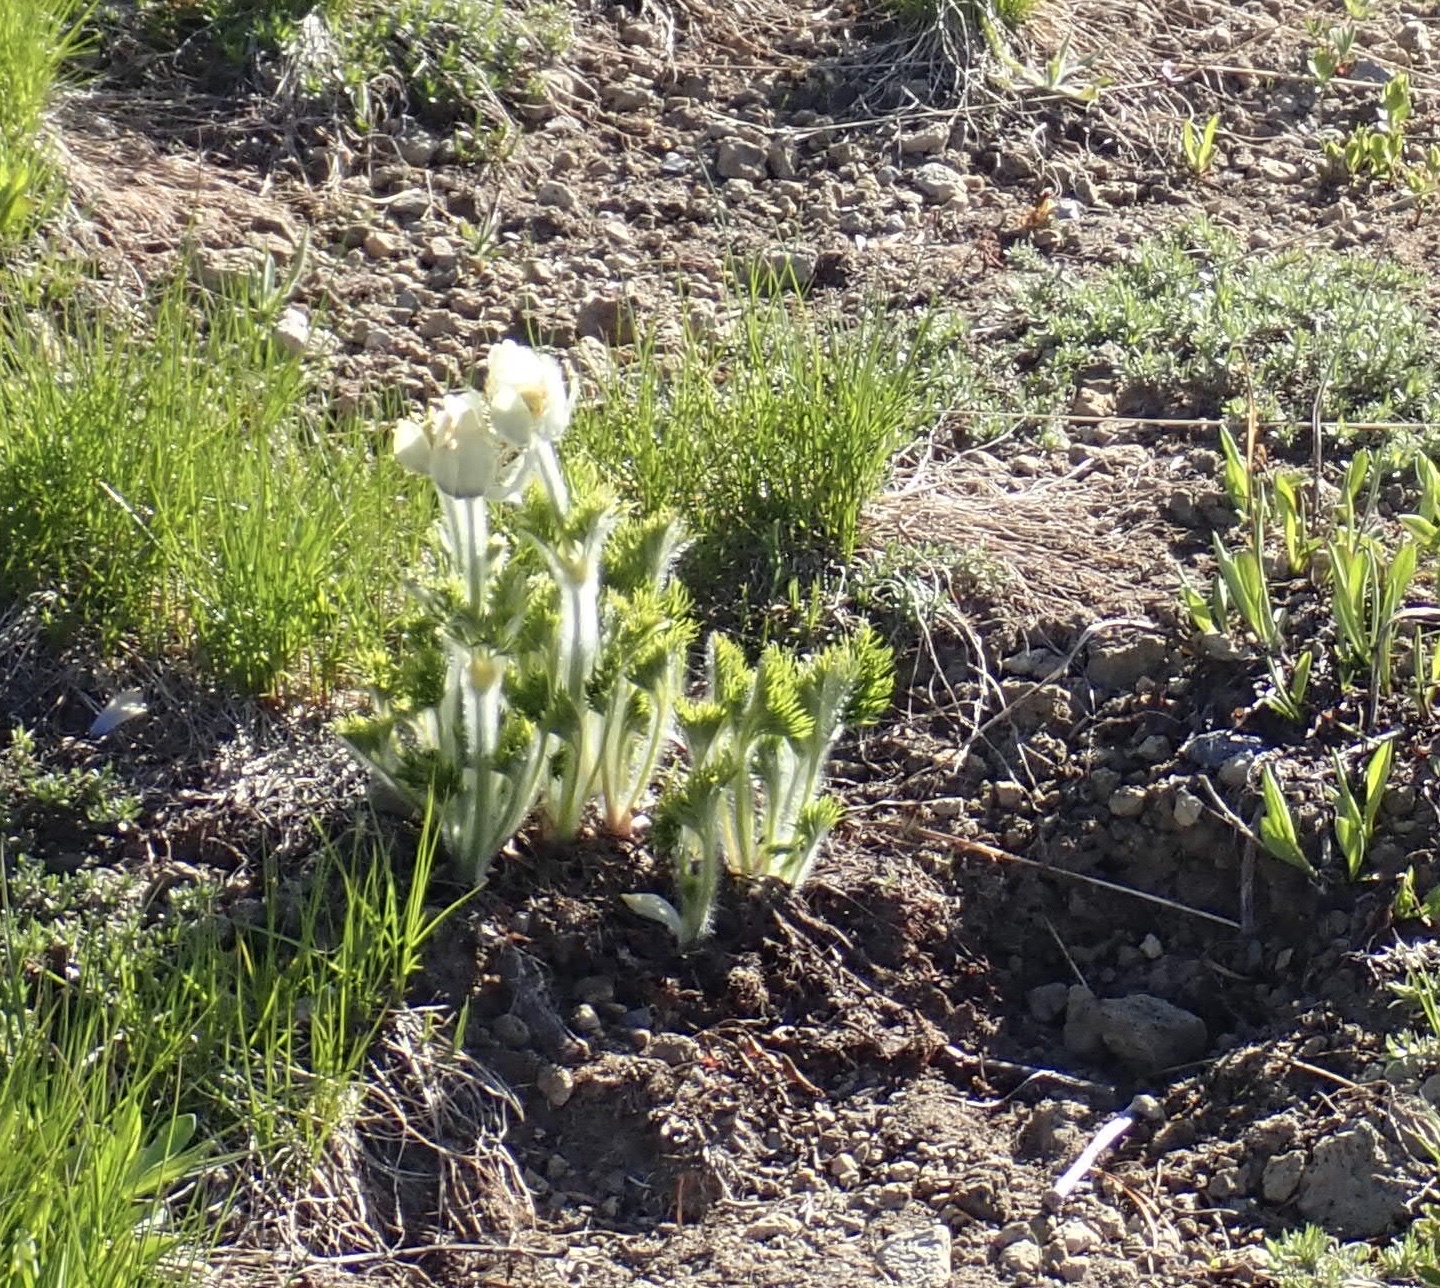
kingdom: Plantae
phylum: Tracheophyta
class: Magnoliopsida
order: Ranunculales
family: Ranunculaceae
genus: Pulsatilla
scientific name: Pulsatilla occidentalis
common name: Mountain pasqueflower
